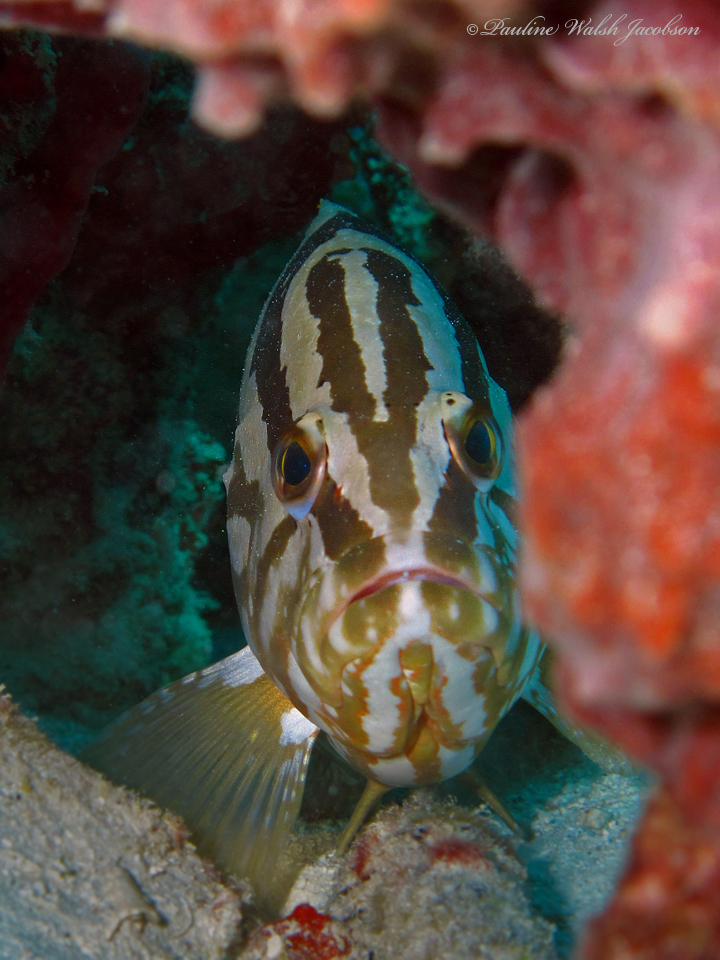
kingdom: Animalia
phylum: Chordata
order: Perciformes
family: Serranidae
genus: Epinephelus
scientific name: Epinephelus striatus
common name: Nassau grouper
